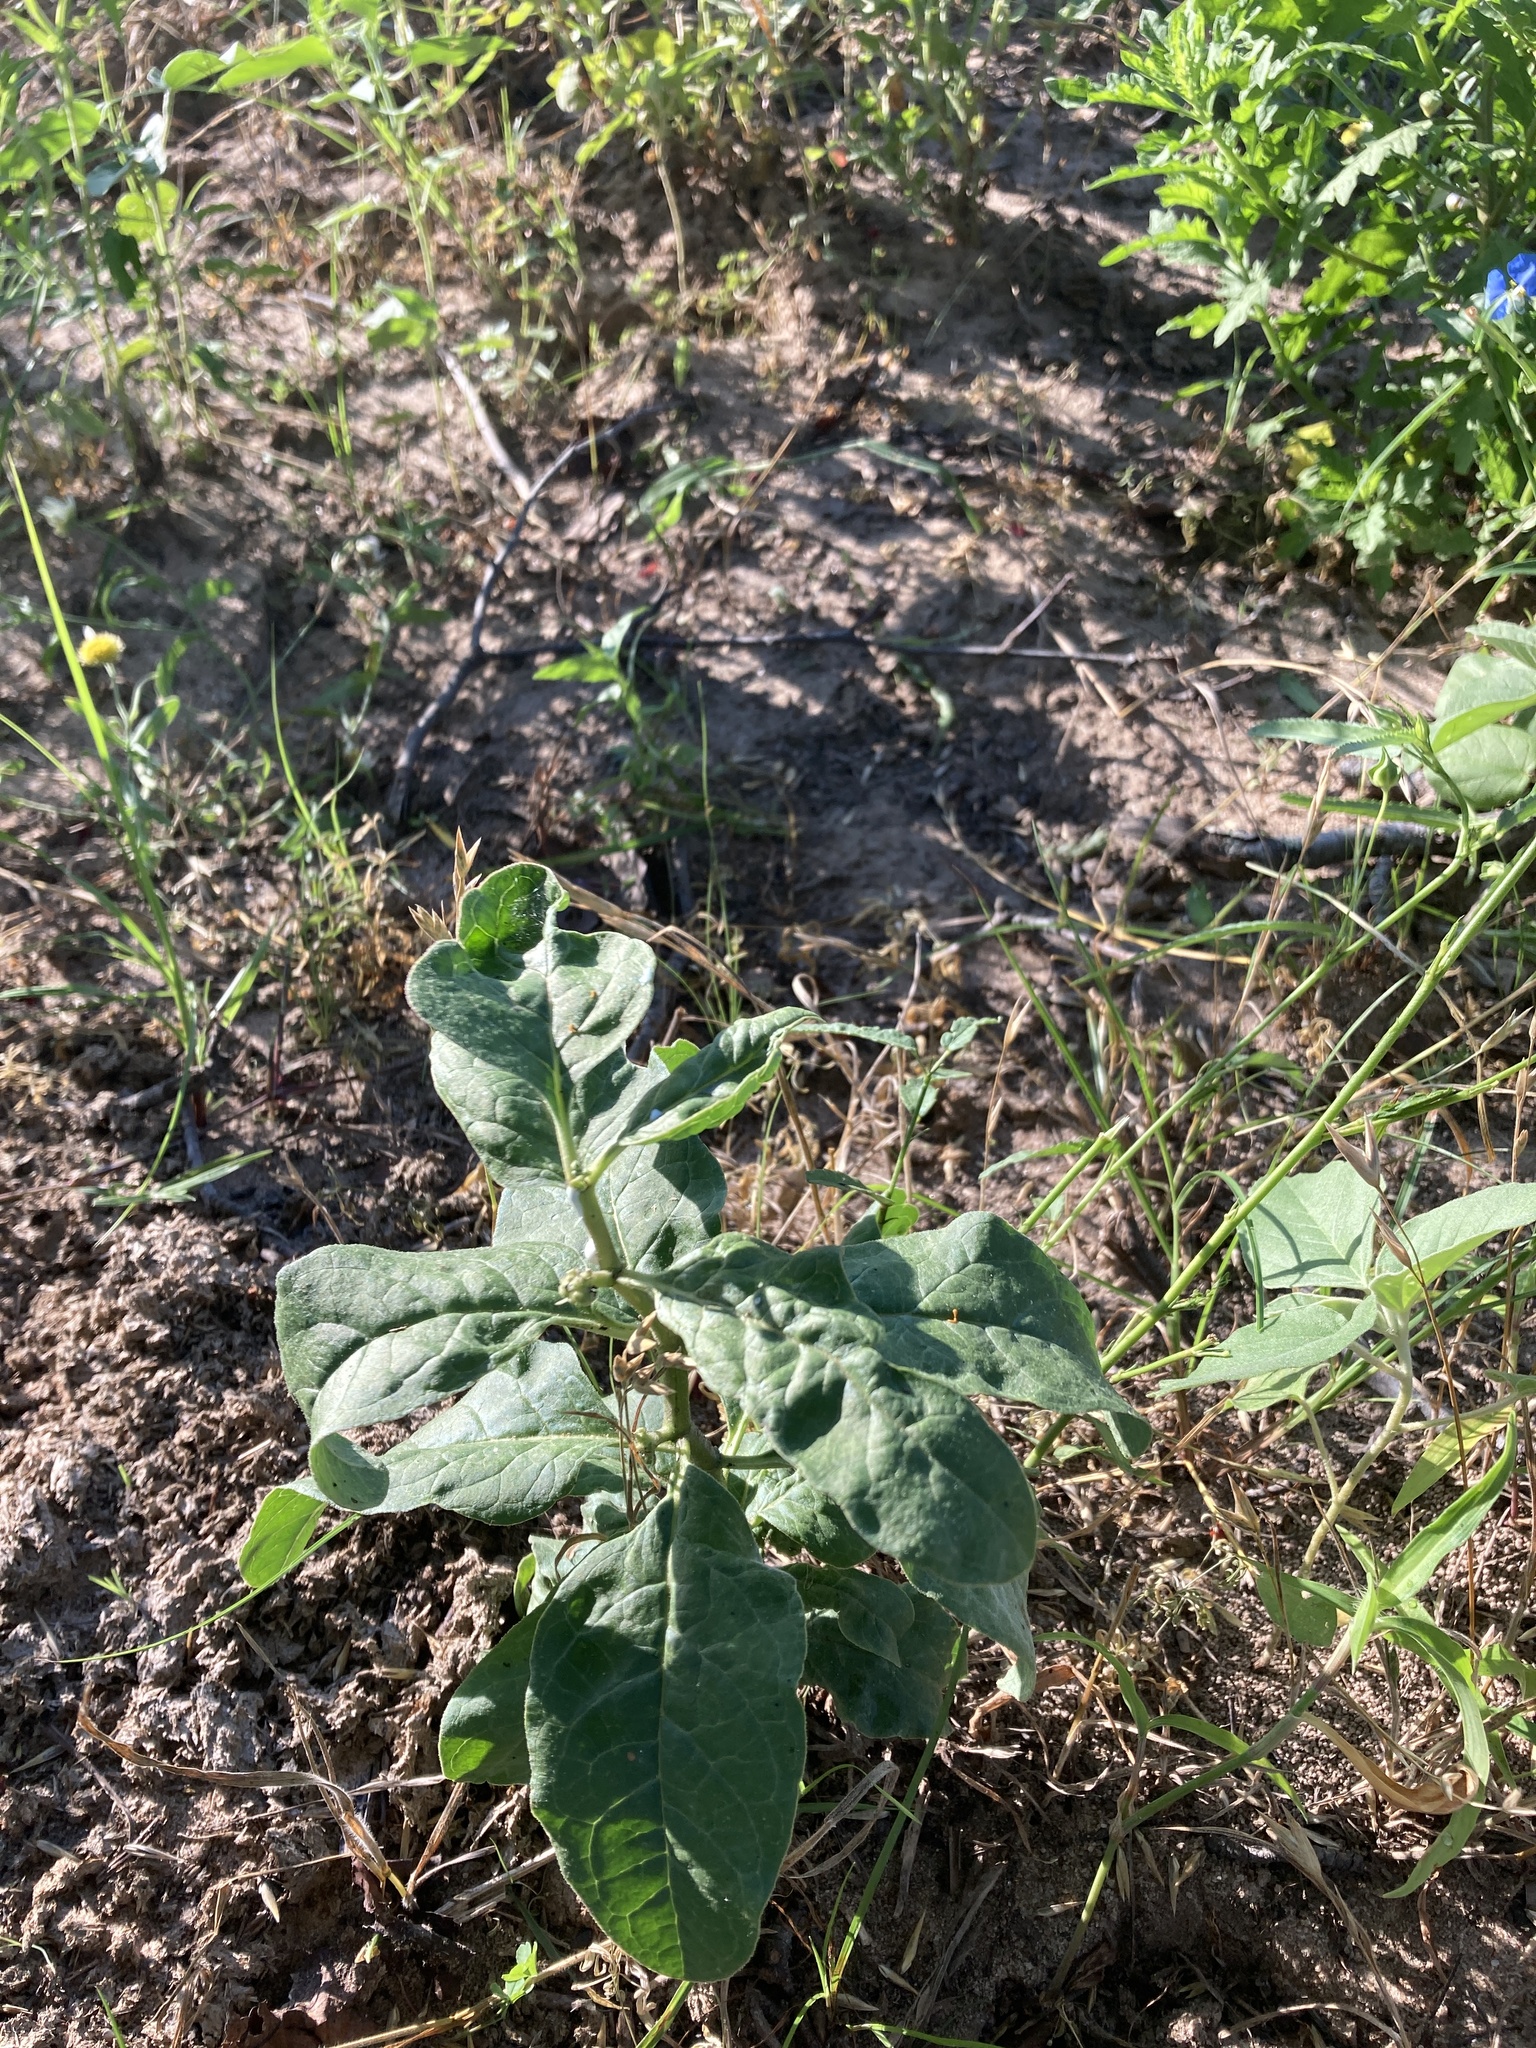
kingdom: Plantae
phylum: Tracheophyta
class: Magnoliopsida
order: Gentianales
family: Apocynaceae
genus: Asclepias
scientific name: Asclepias oenotheroides
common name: Zizotes milkweed
